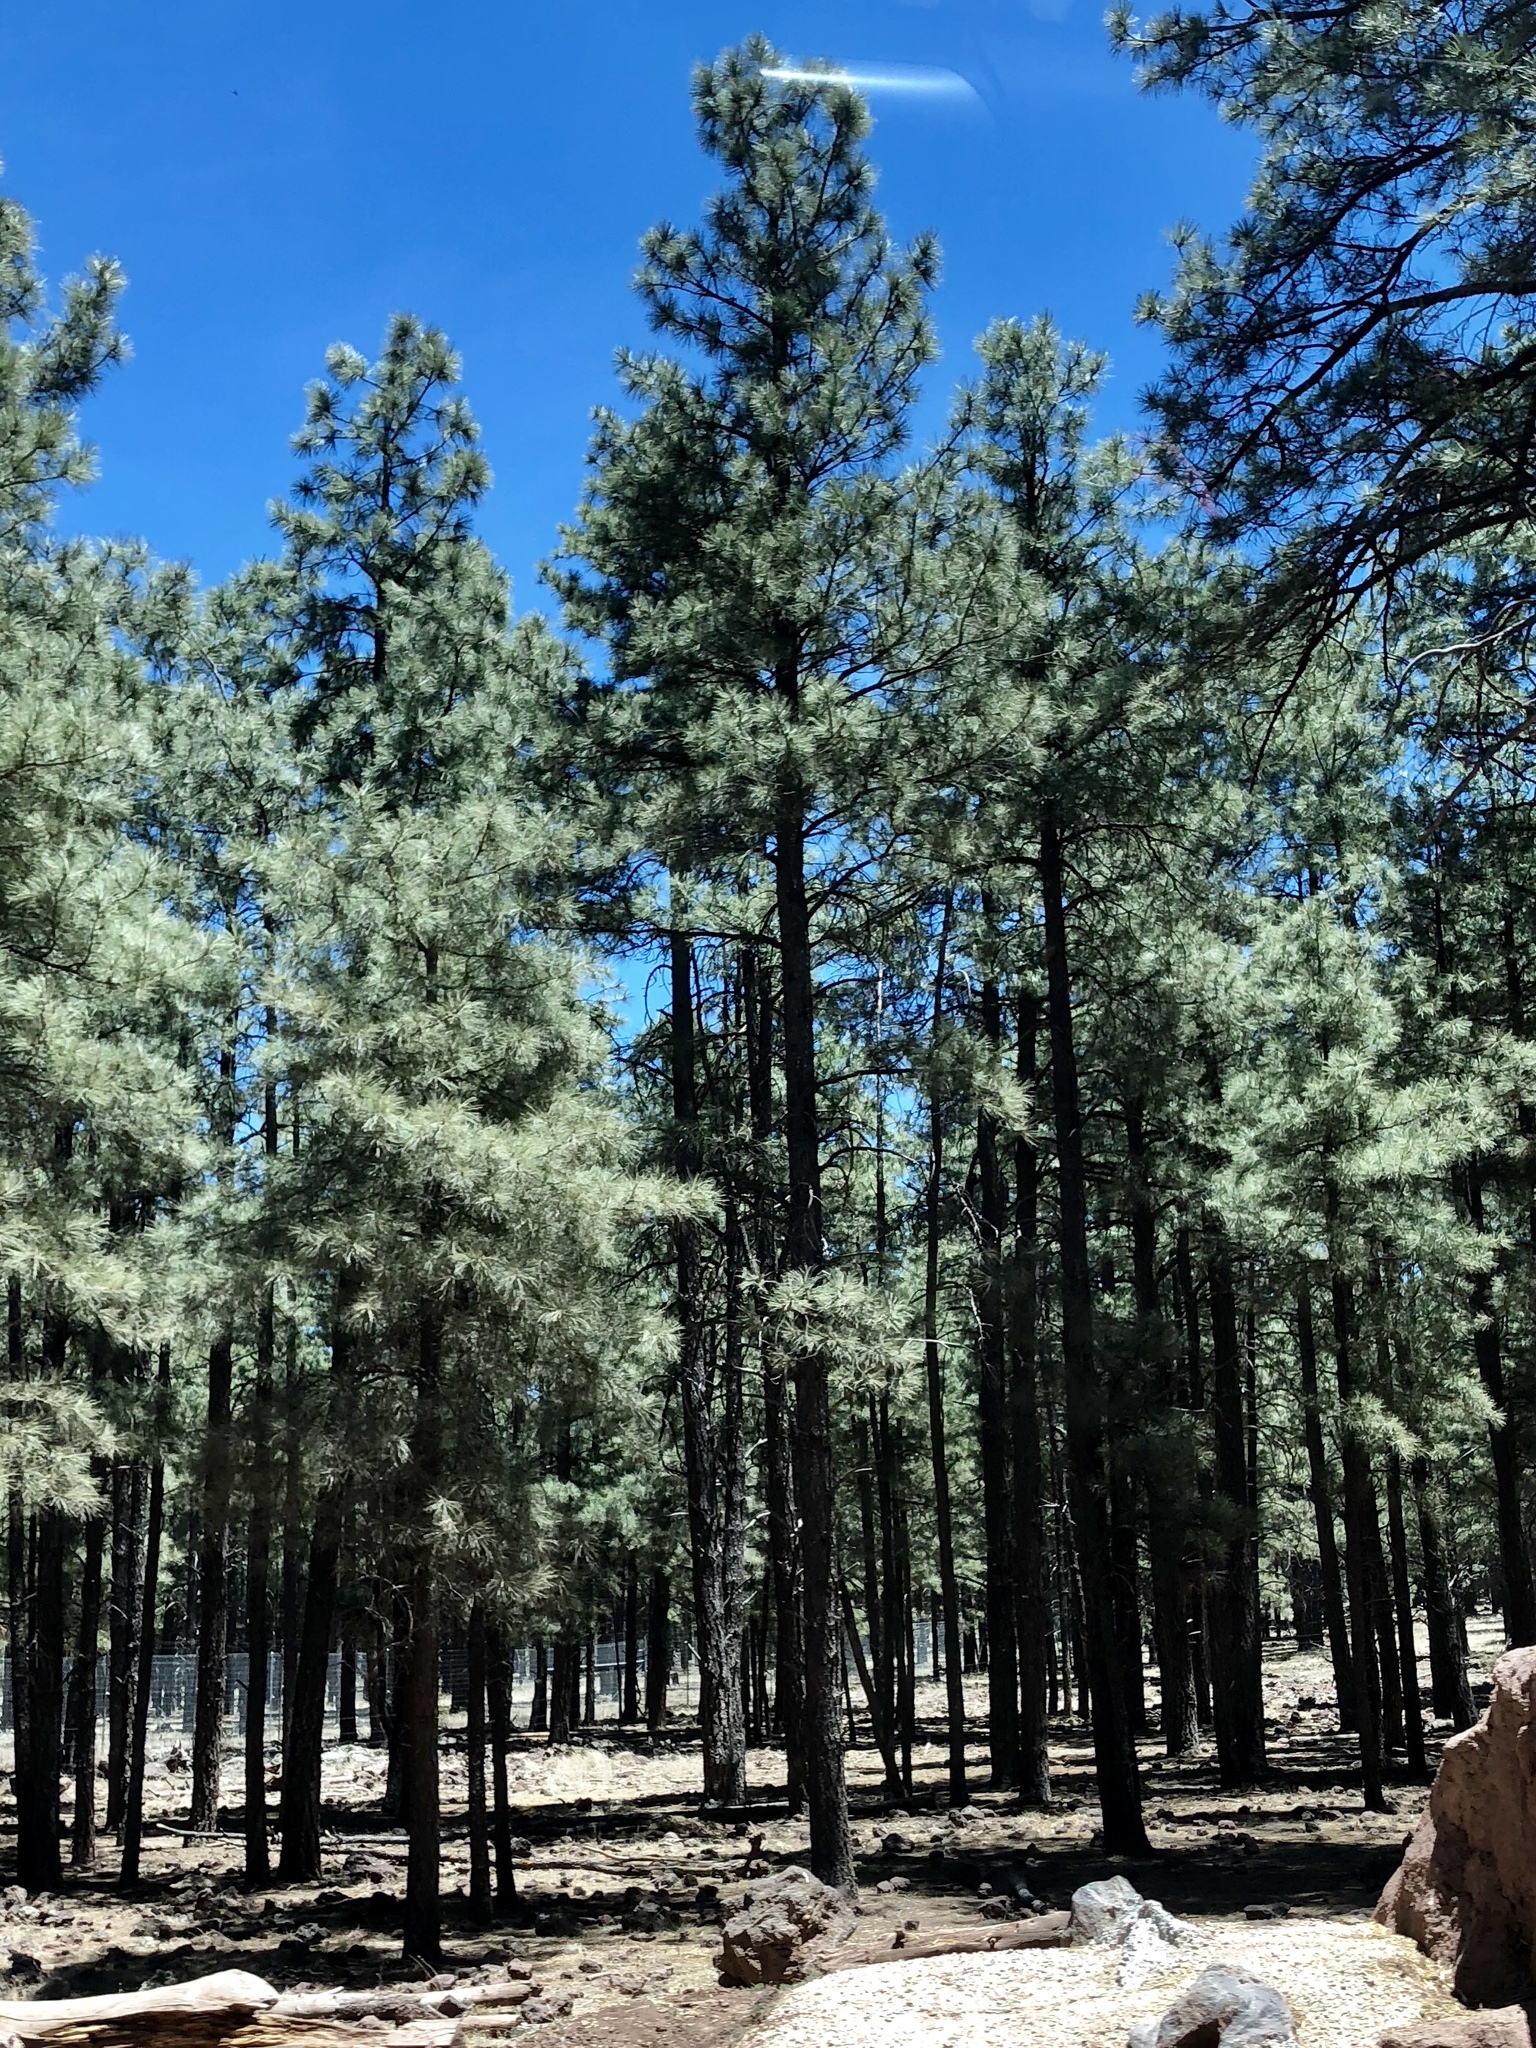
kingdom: Plantae
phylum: Tracheophyta
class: Pinopsida
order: Pinales
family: Pinaceae
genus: Pinus
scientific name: Pinus ponderosa
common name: Western yellow-pine
